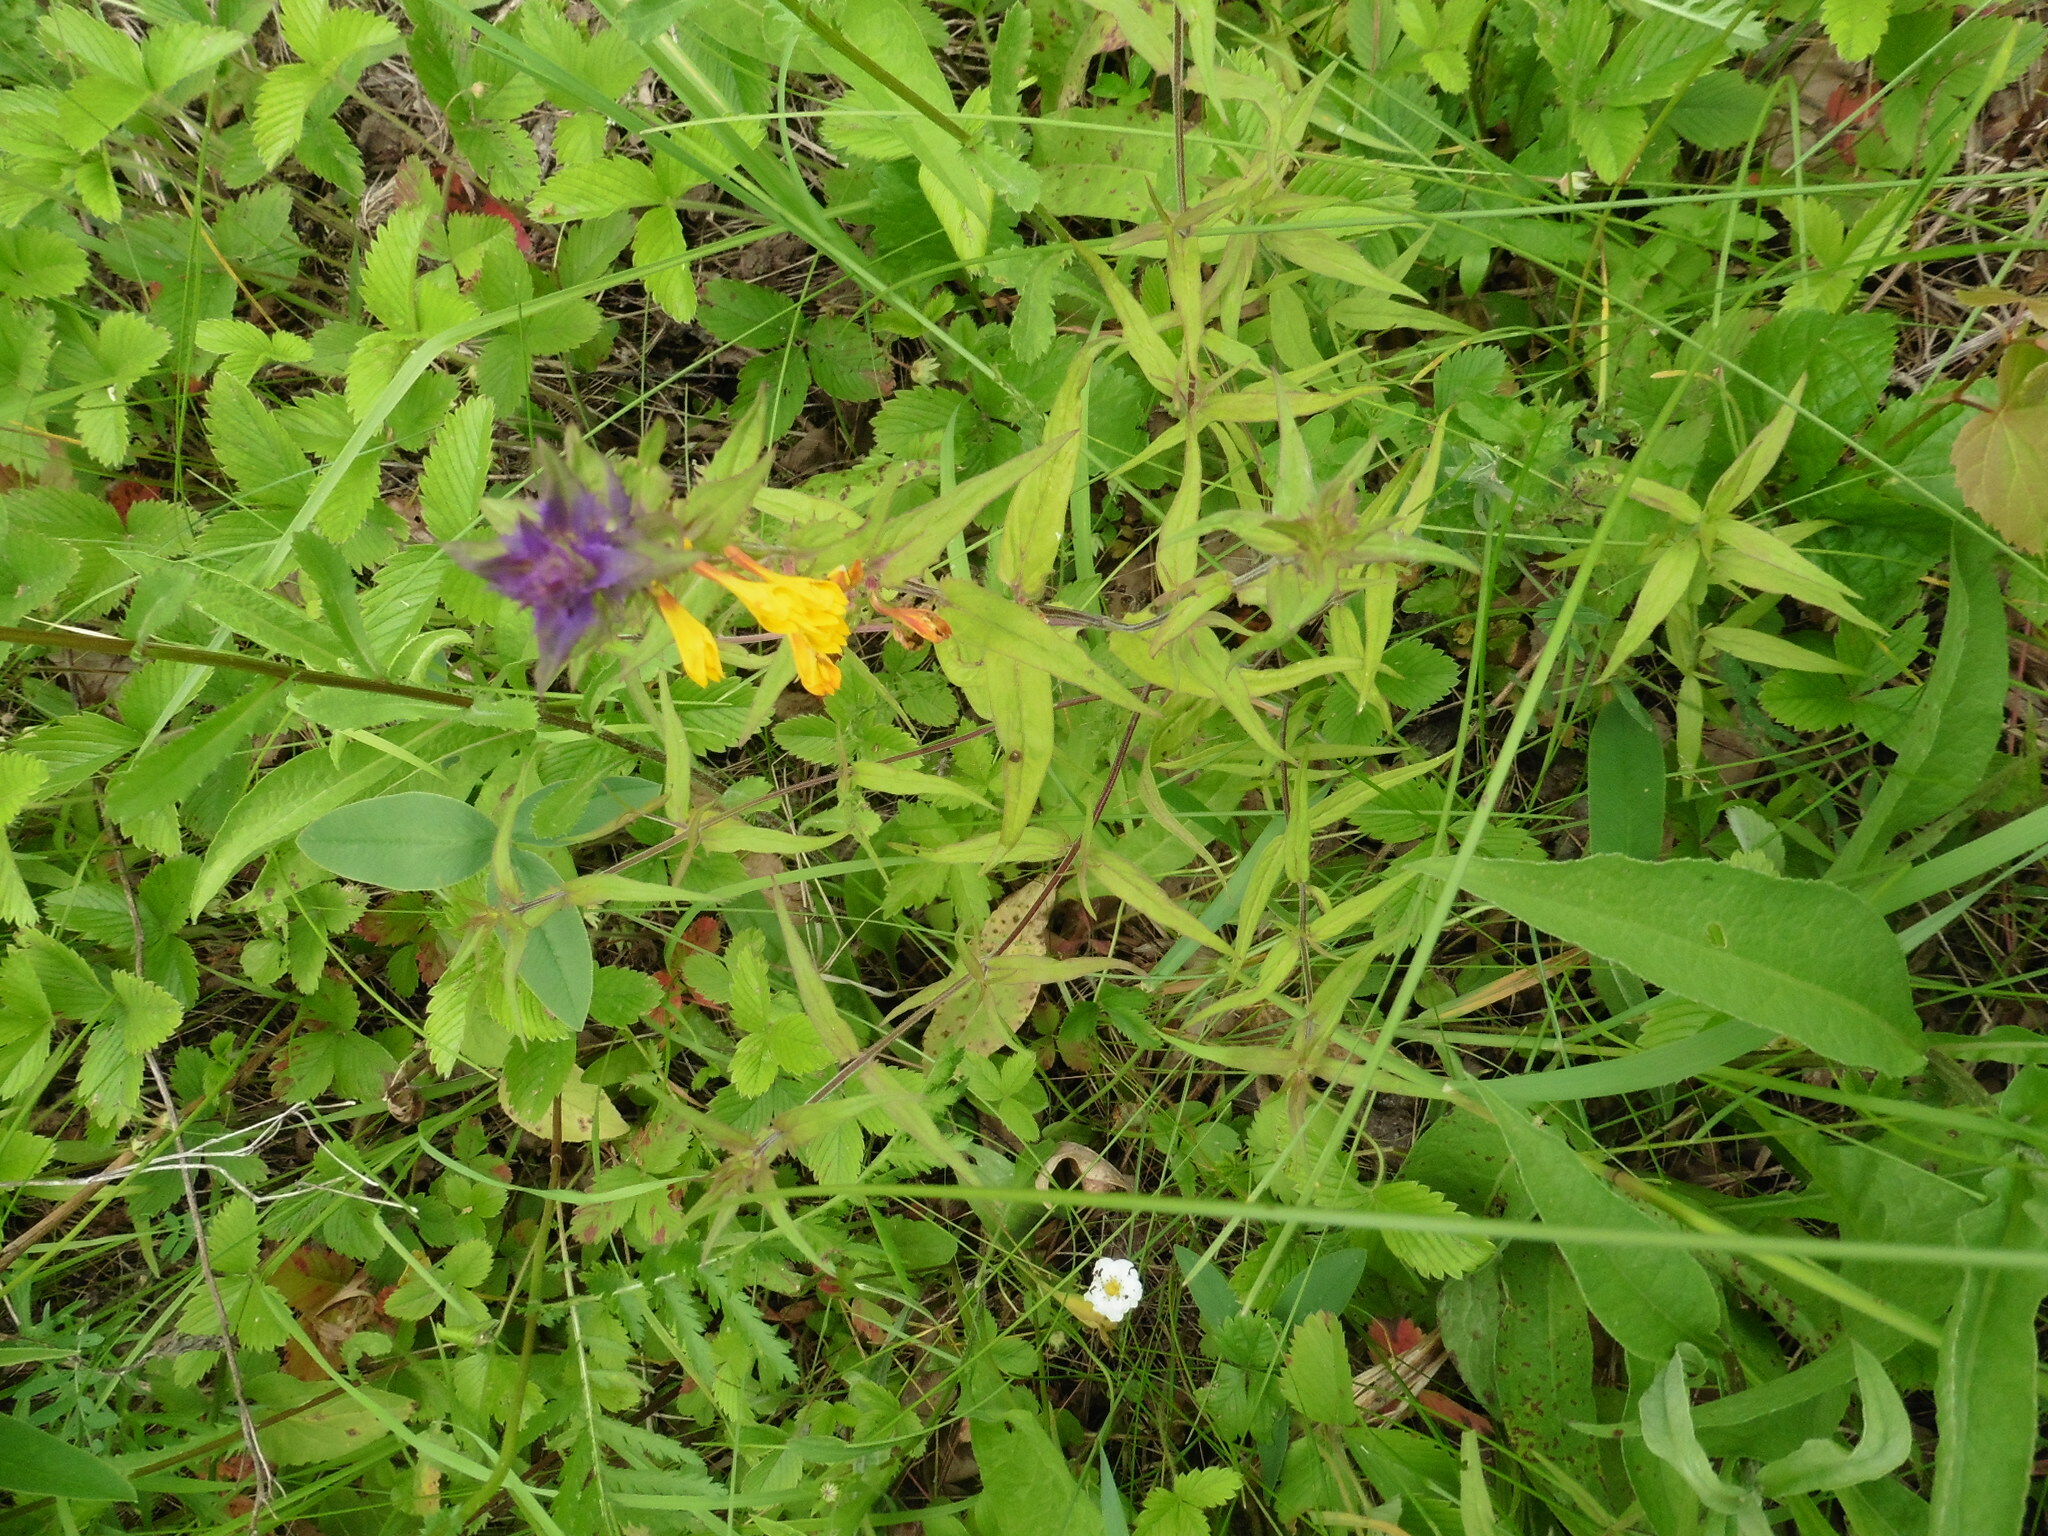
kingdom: Plantae
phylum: Tracheophyta
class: Magnoliopsida
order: Lamiales
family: Orobanchaceae
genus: Melampyrum
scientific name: Melampyrum nemorosum
